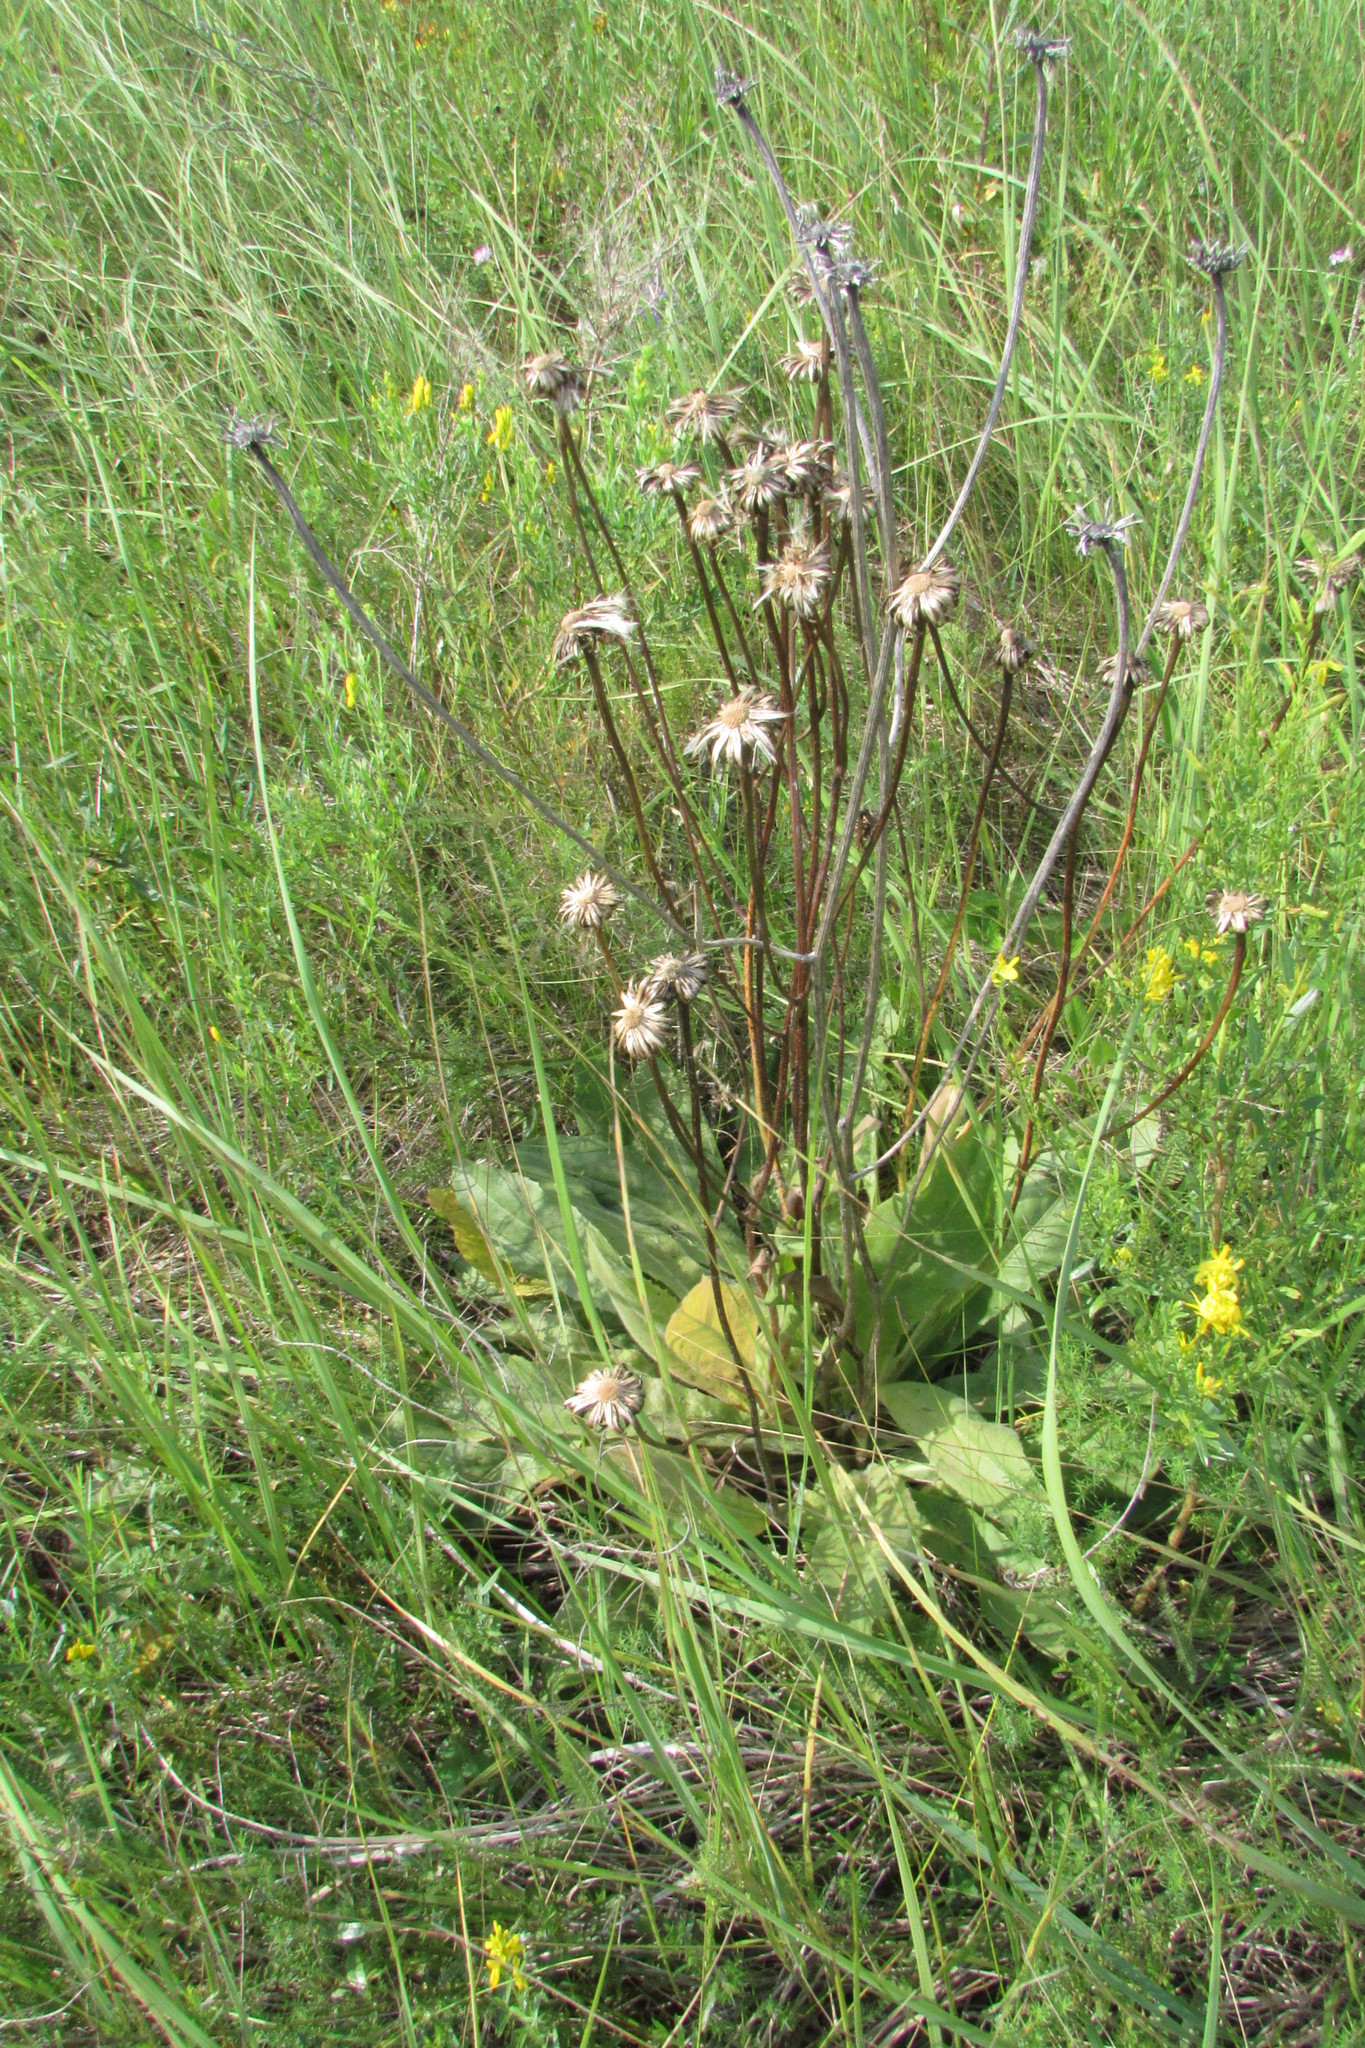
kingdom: Plantae
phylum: Tracheophyta
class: Magnoliopsida
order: Asterales
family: Asteraceae
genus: Trommsdorffia
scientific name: Trommsdorffia maculata
